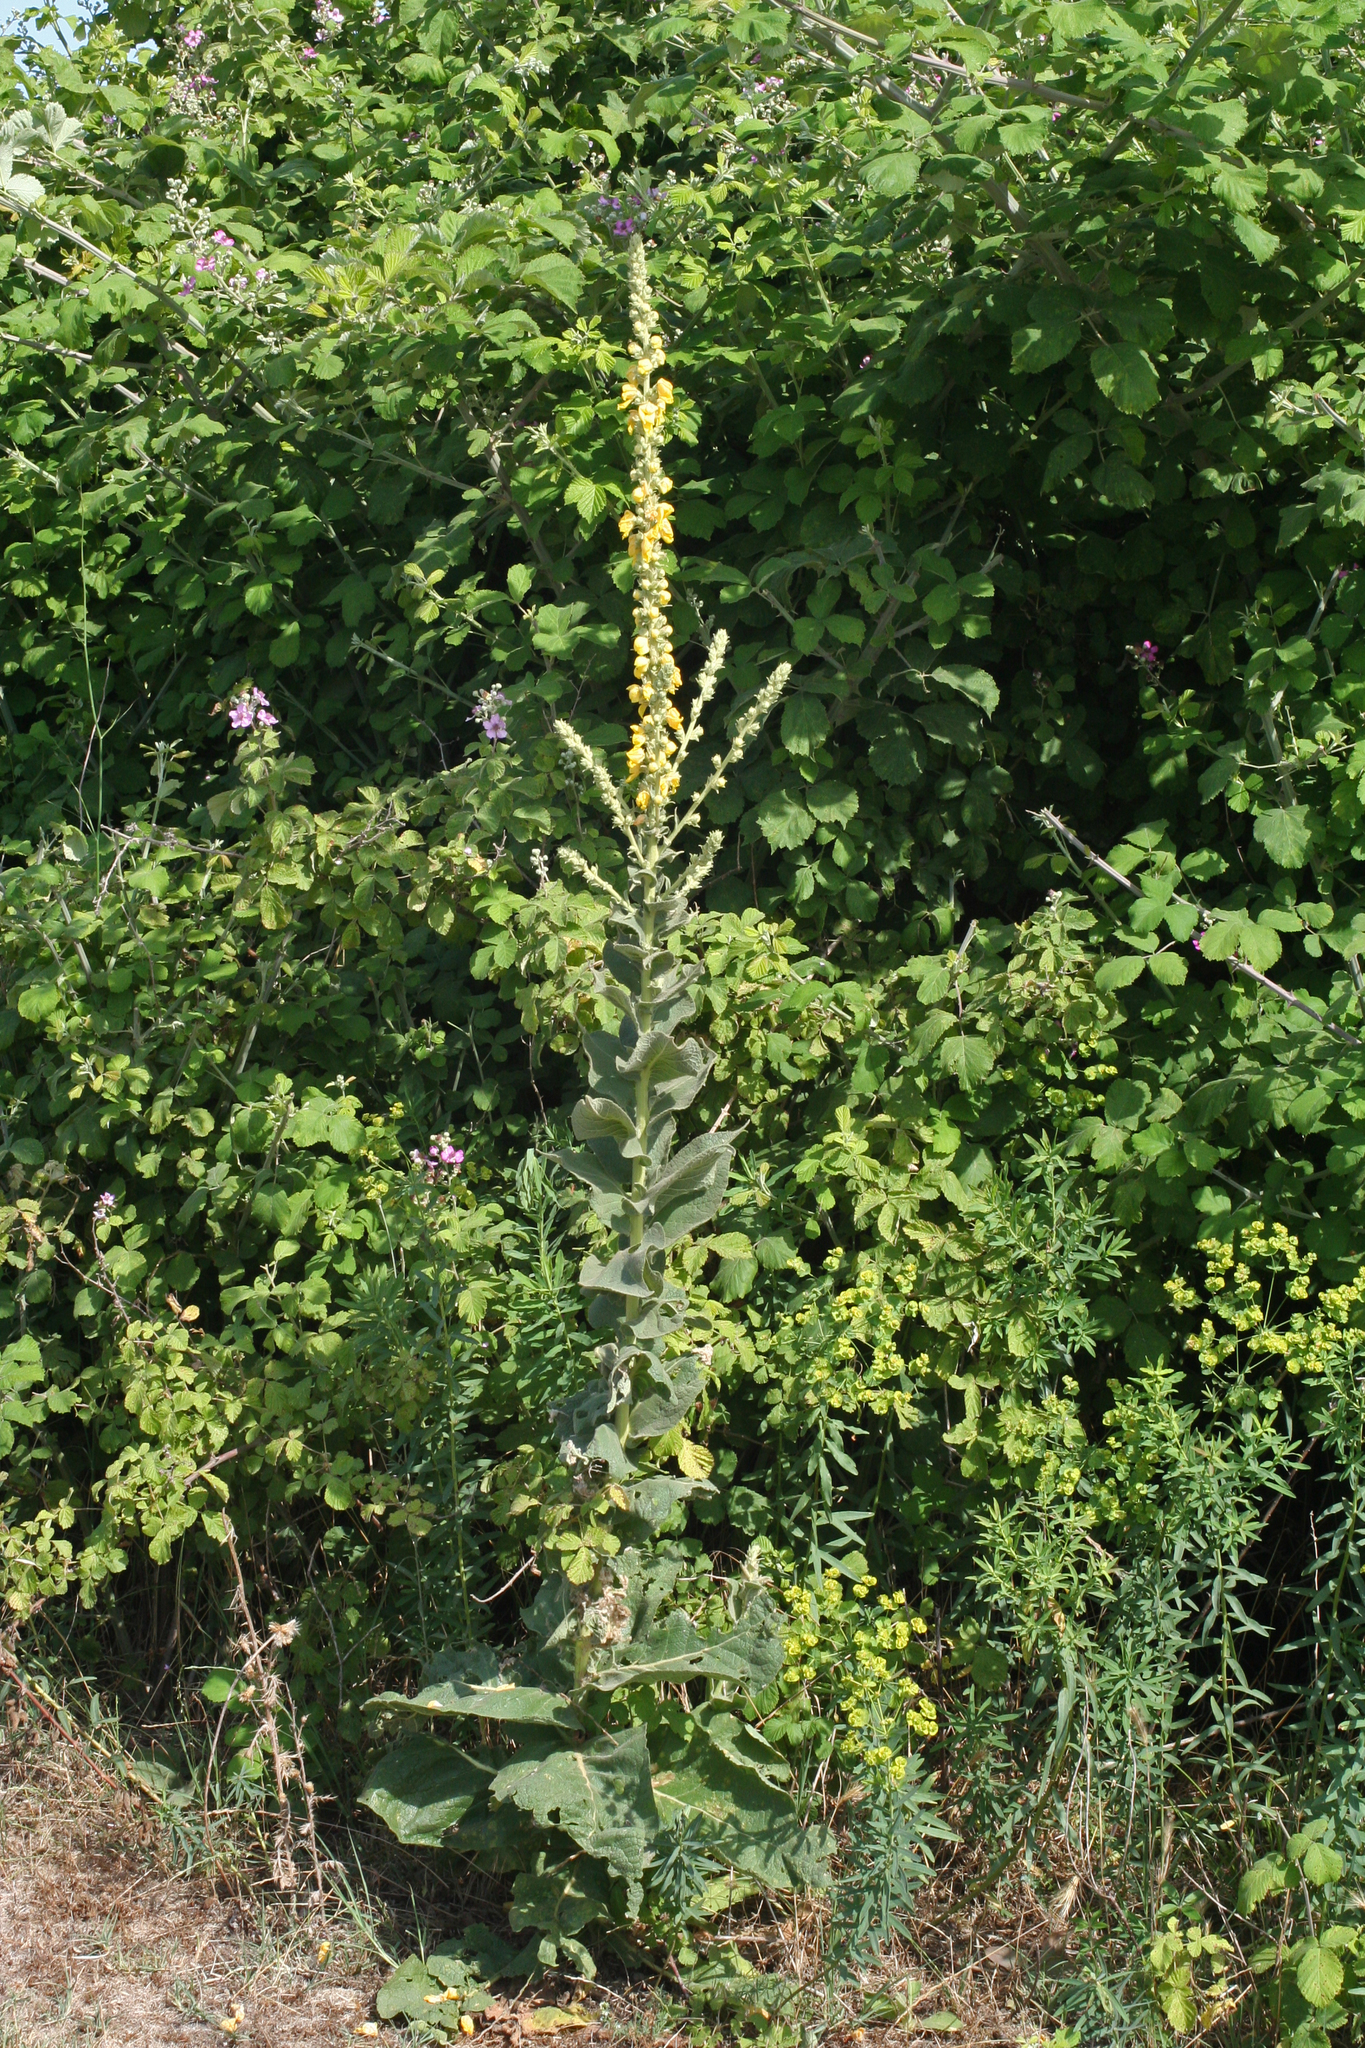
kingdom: Plantae
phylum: Tracheophyta
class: Magnoliopsida
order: Lamiales
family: Scrophulariaceae
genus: Verbascum
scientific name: Verbascum phlomoides
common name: Orange mullein
